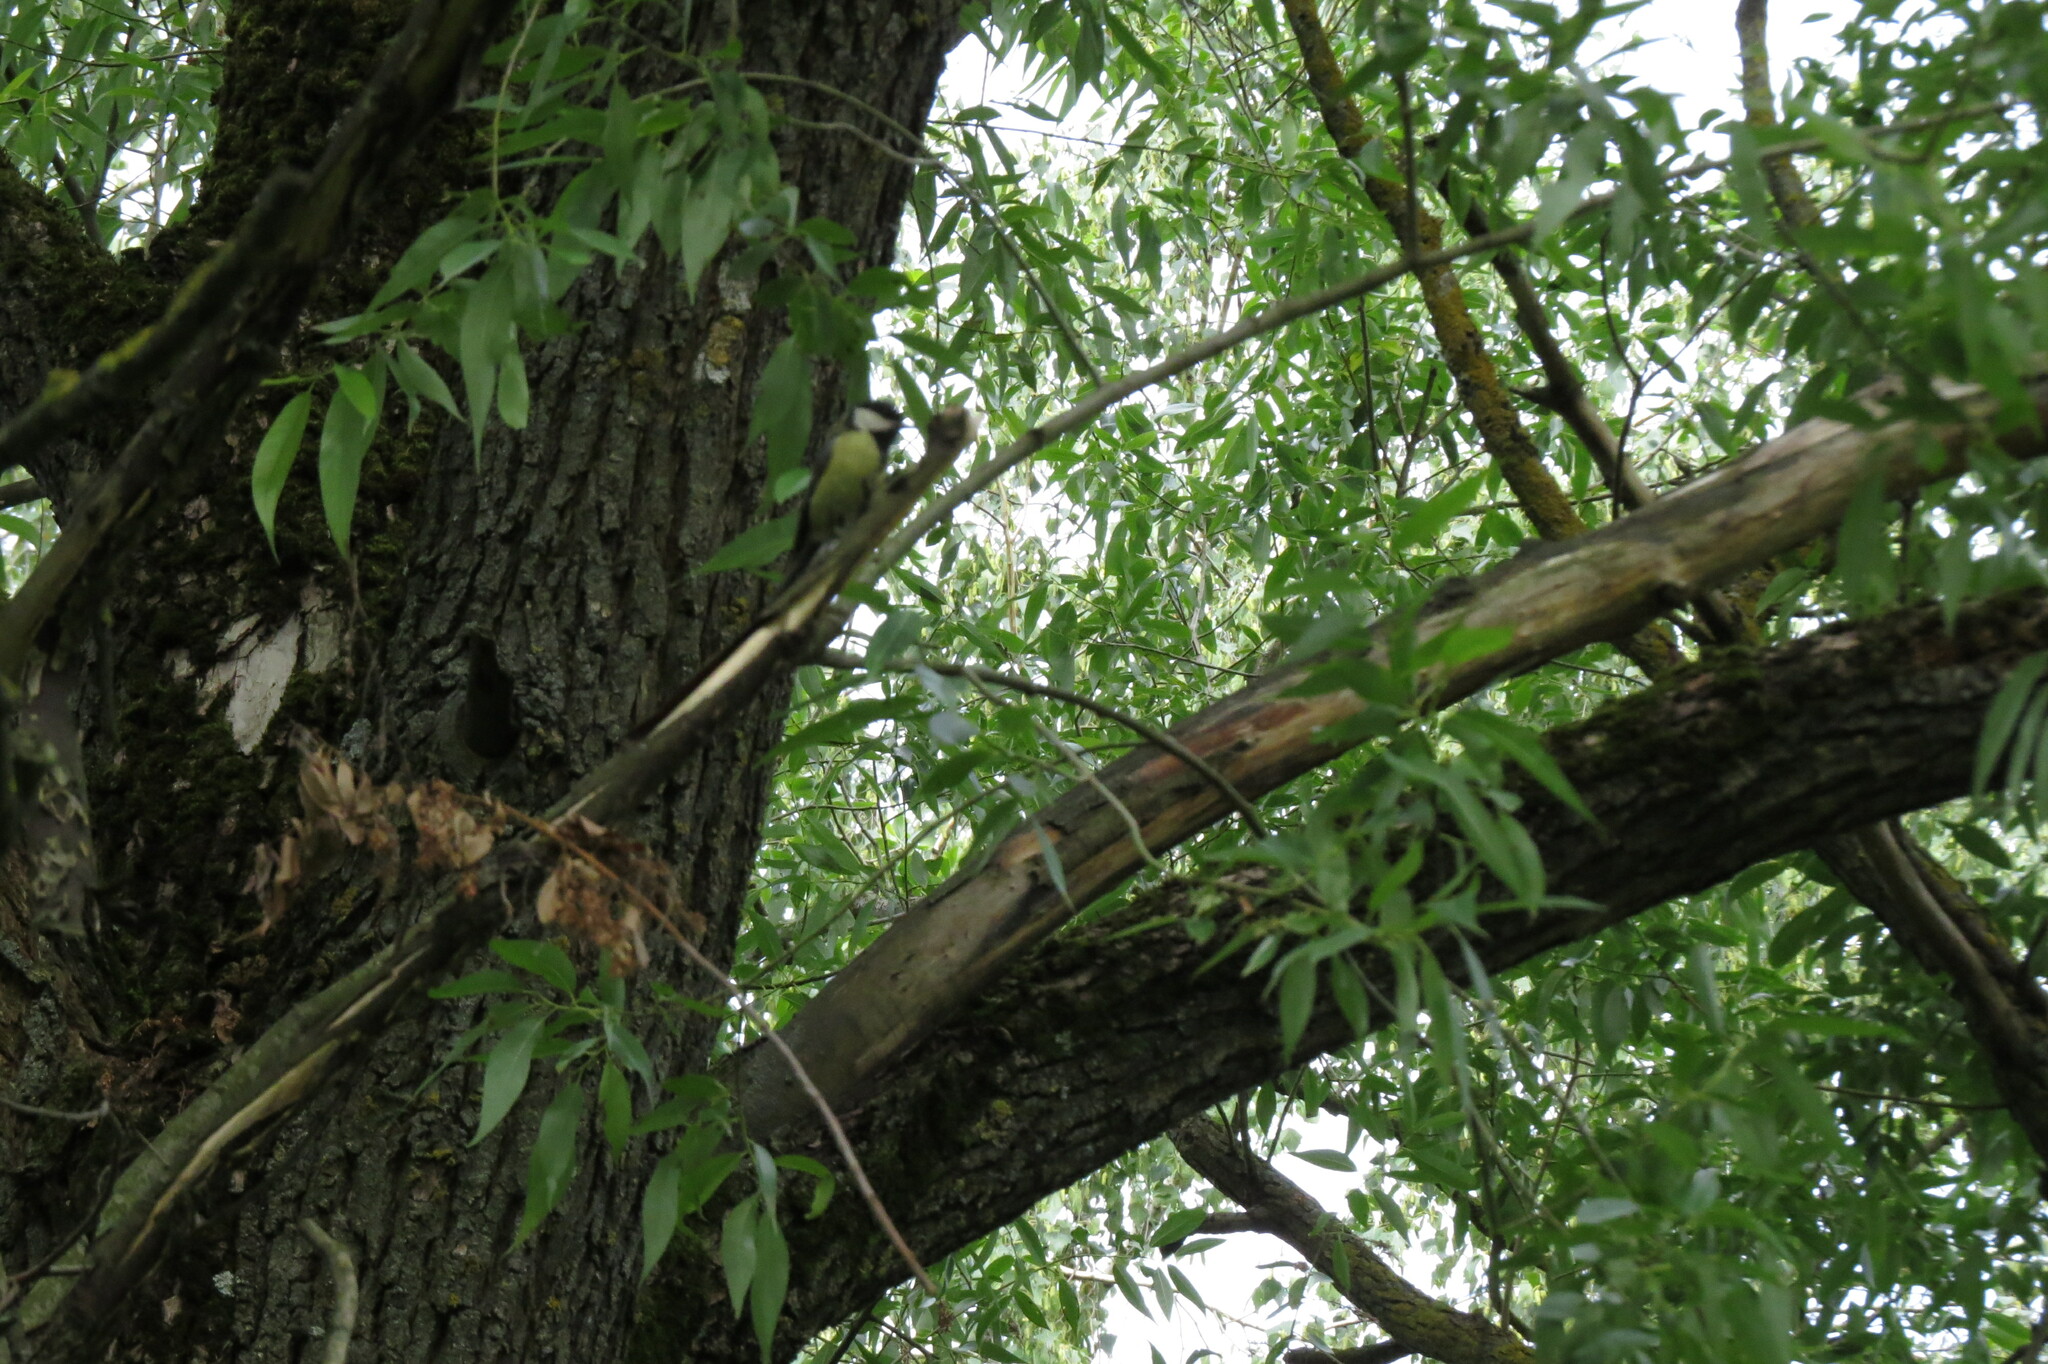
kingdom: Animalia
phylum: Chordata
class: Aves
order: Passeriformes
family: Paridae
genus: Parus
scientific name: Parus major
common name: Great tit
